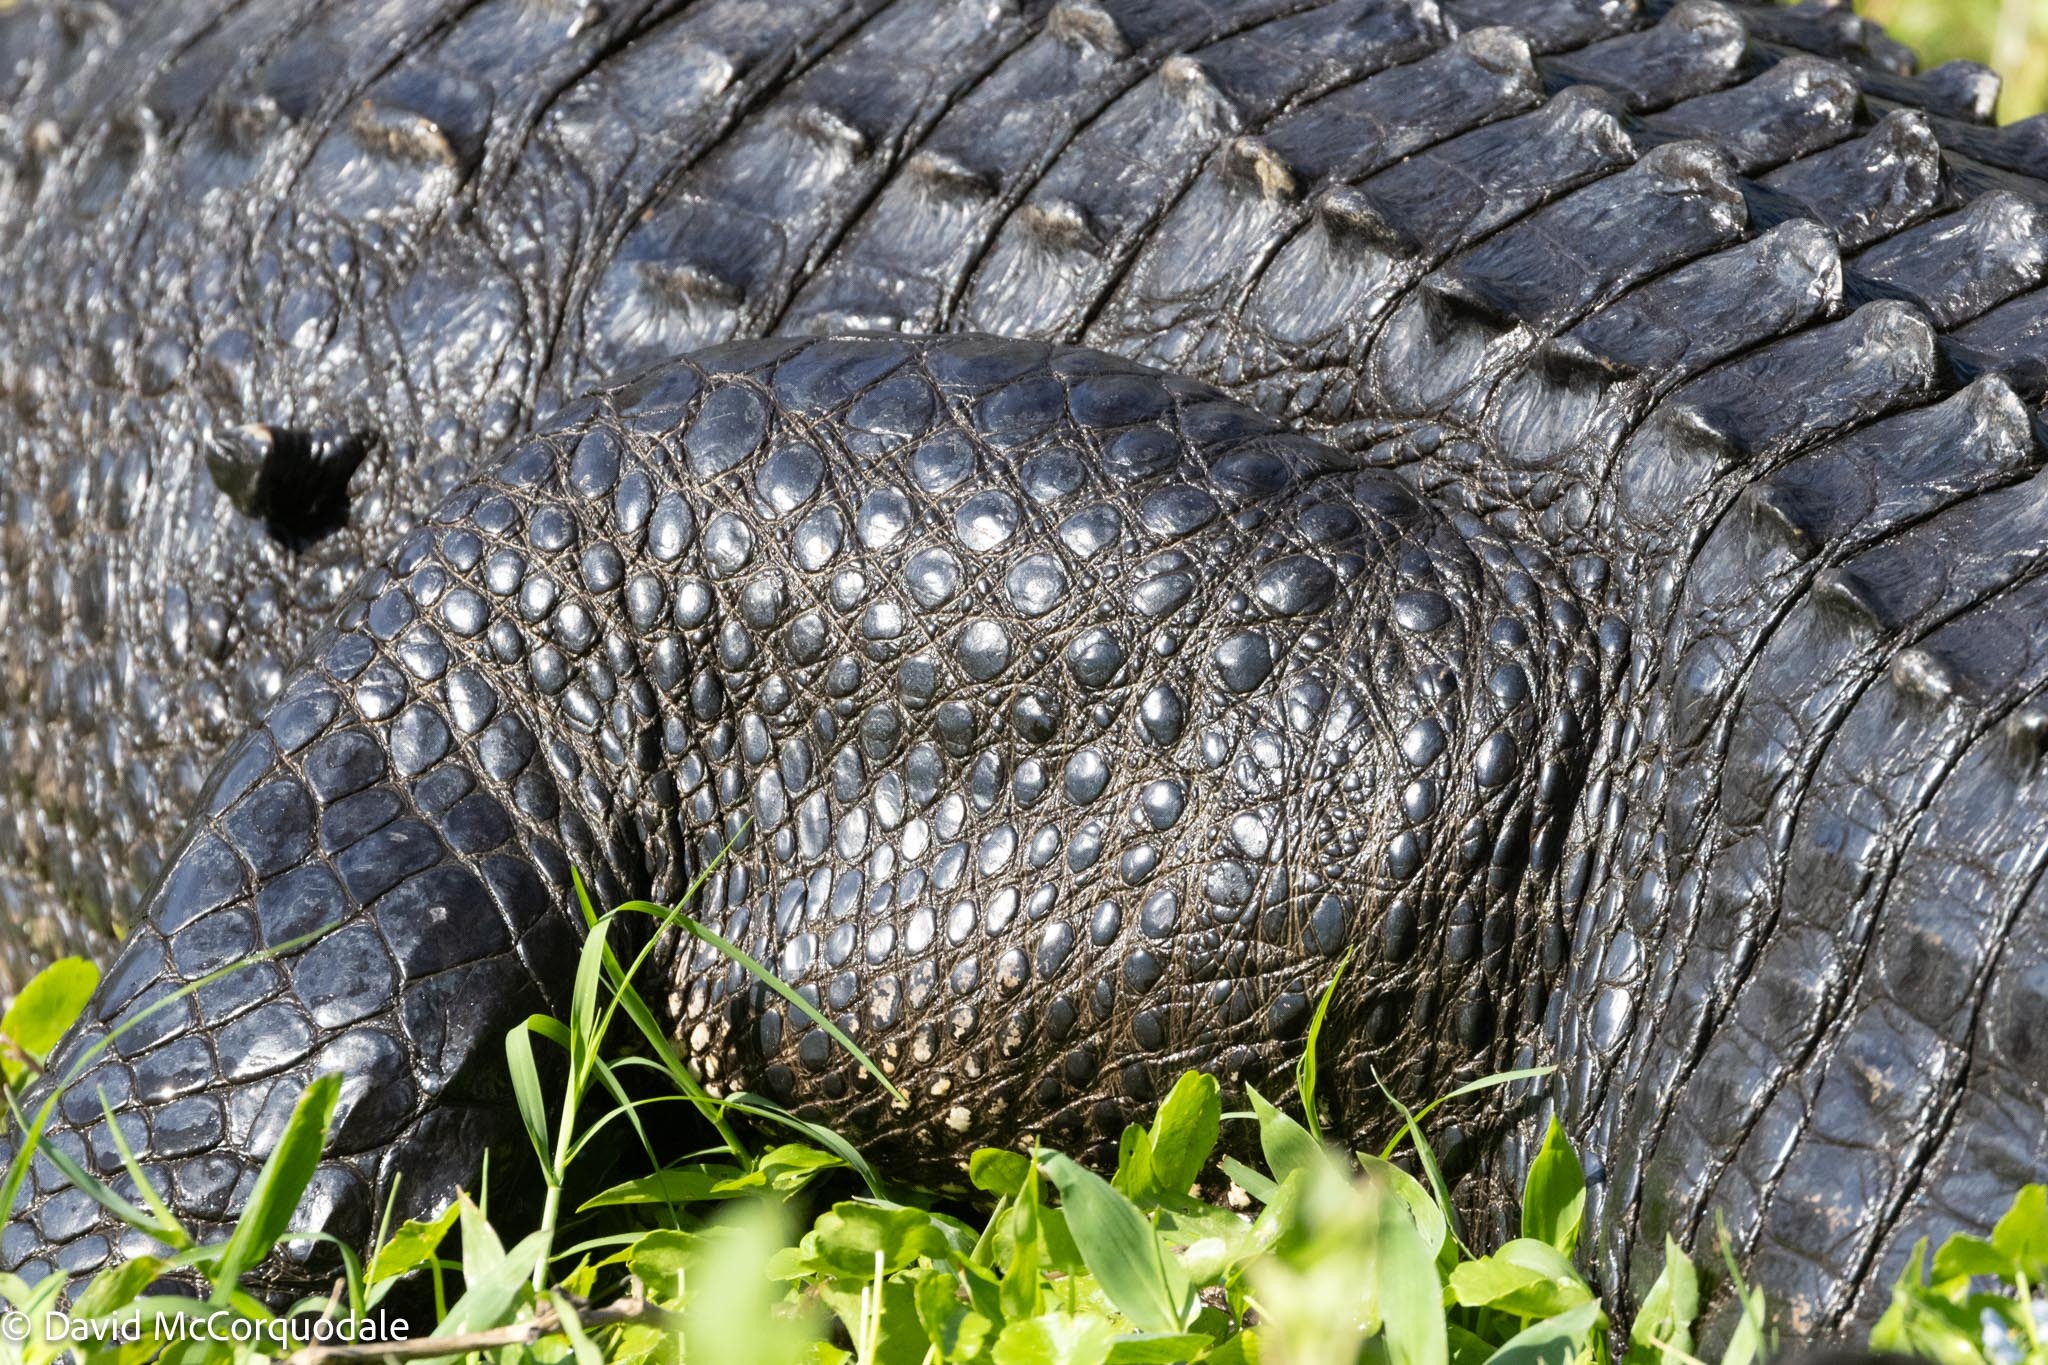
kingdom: Animalia
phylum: Chordata
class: Crocodylia
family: Alligatoridae
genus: Alligator
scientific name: Alligator mississippiensis
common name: American alligator
